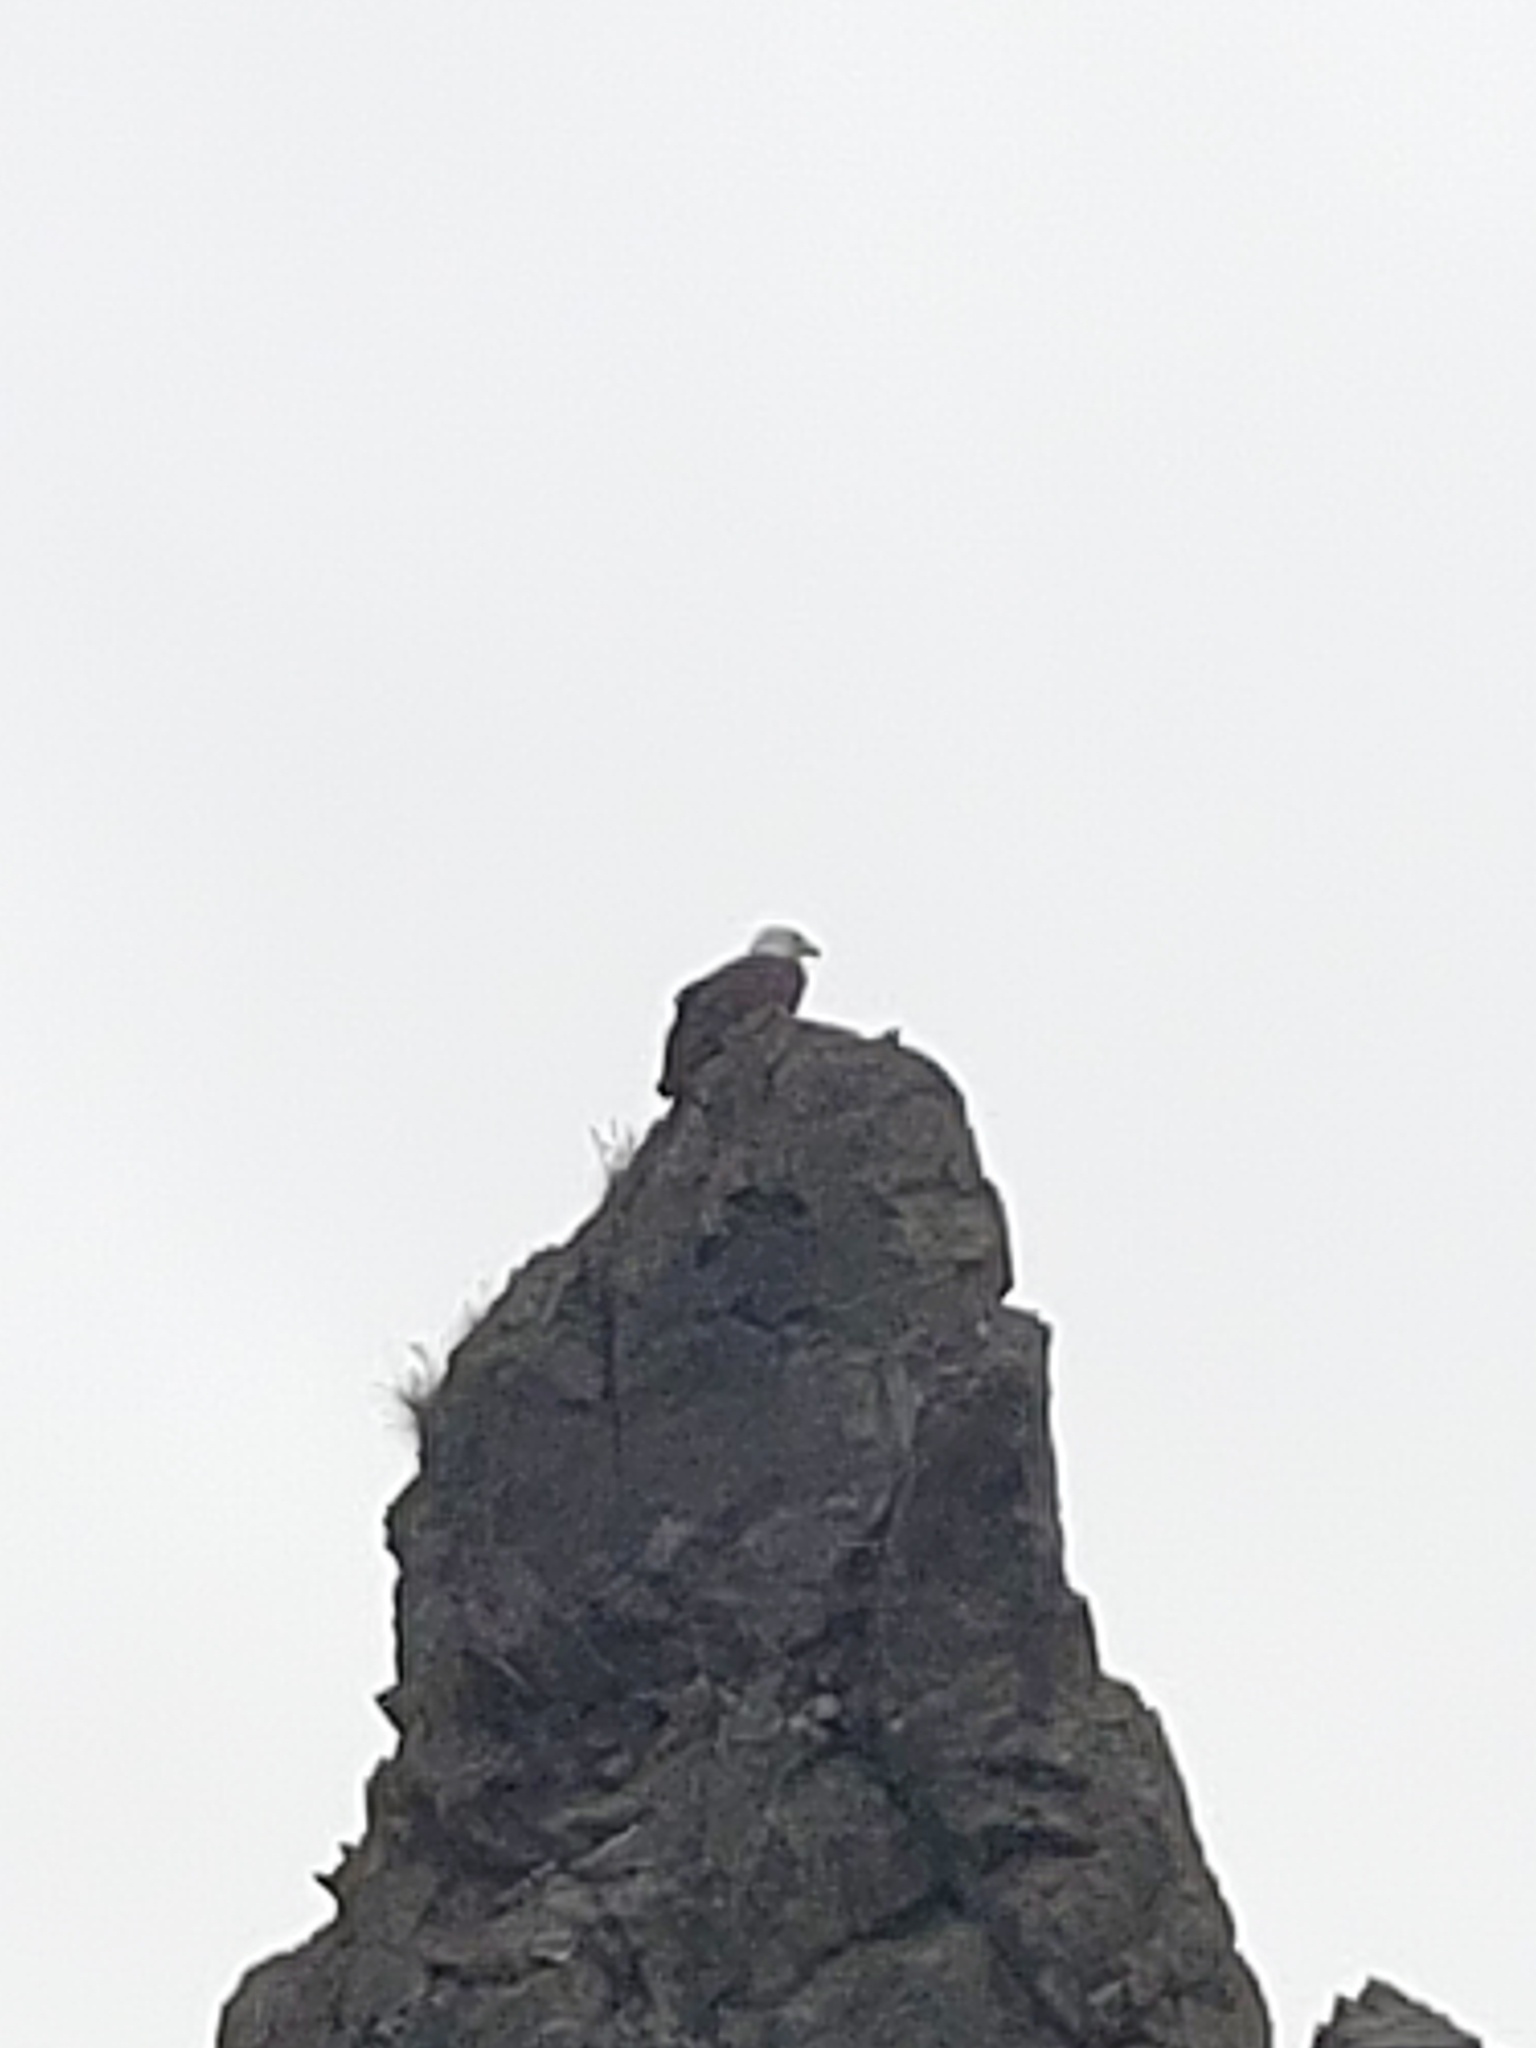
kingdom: Animalia
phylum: Chordata
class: Aves
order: Accipitriformes
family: Accipitridae
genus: Haliaeetus
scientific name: Haliaeetus leucocephalus
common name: Bald eagle
